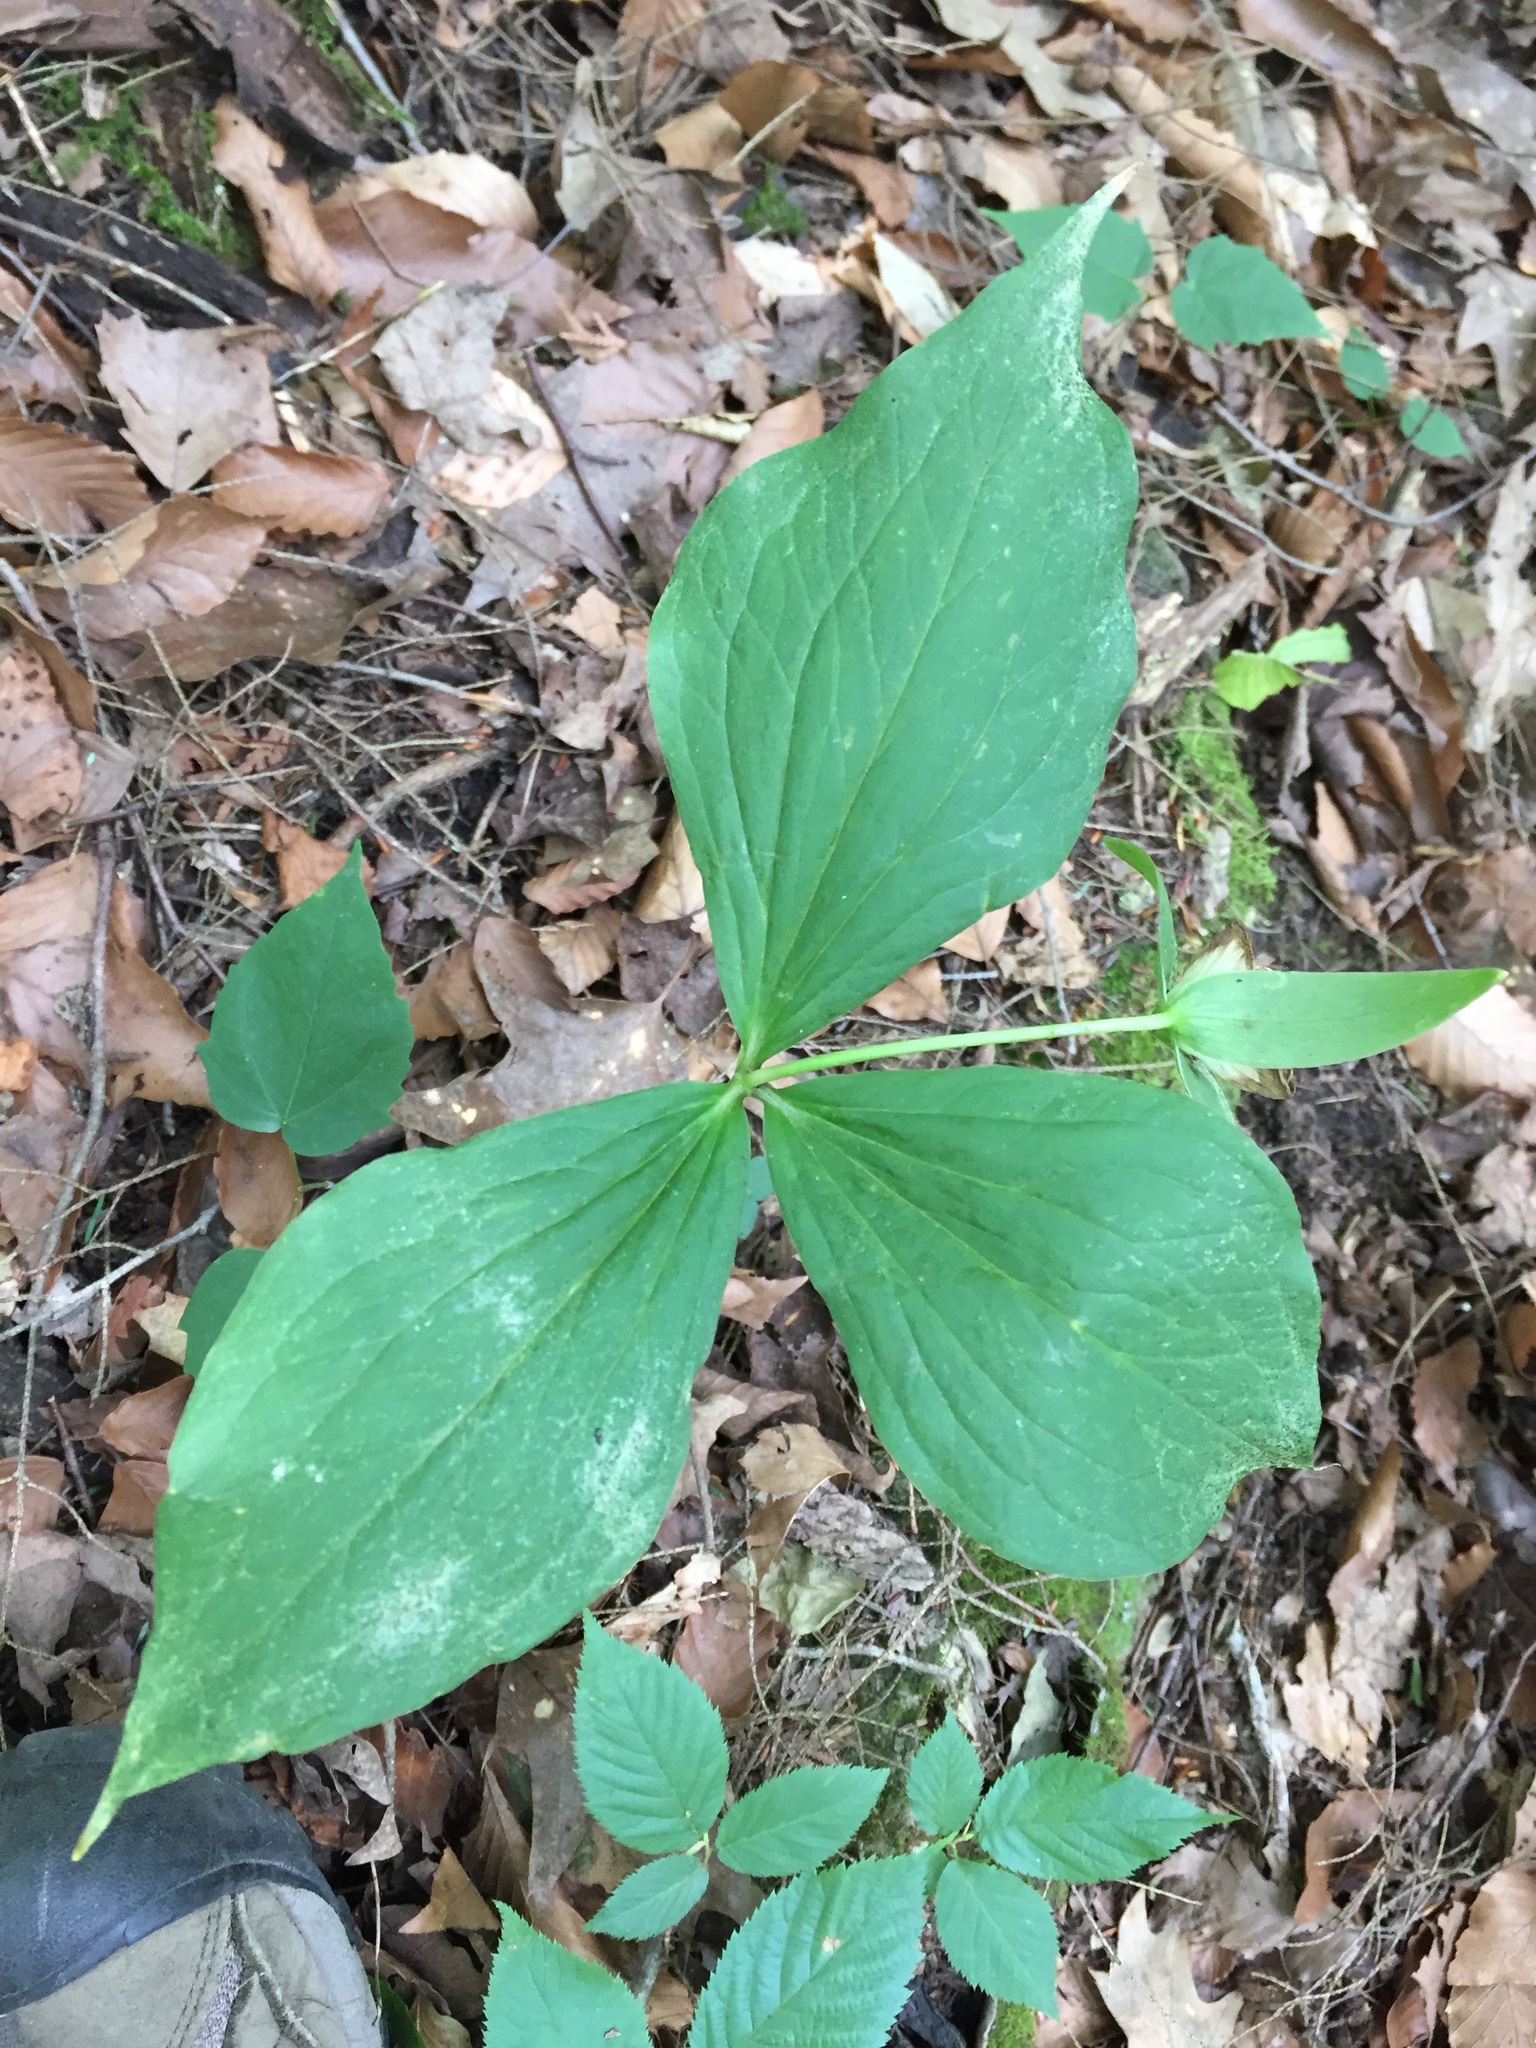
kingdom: Plantae
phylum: Tracheophyta
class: Liliopsida
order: Liliales
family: Melanthiaceae
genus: Trillium
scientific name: Trillium grandiflorum
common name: Great white trillium
